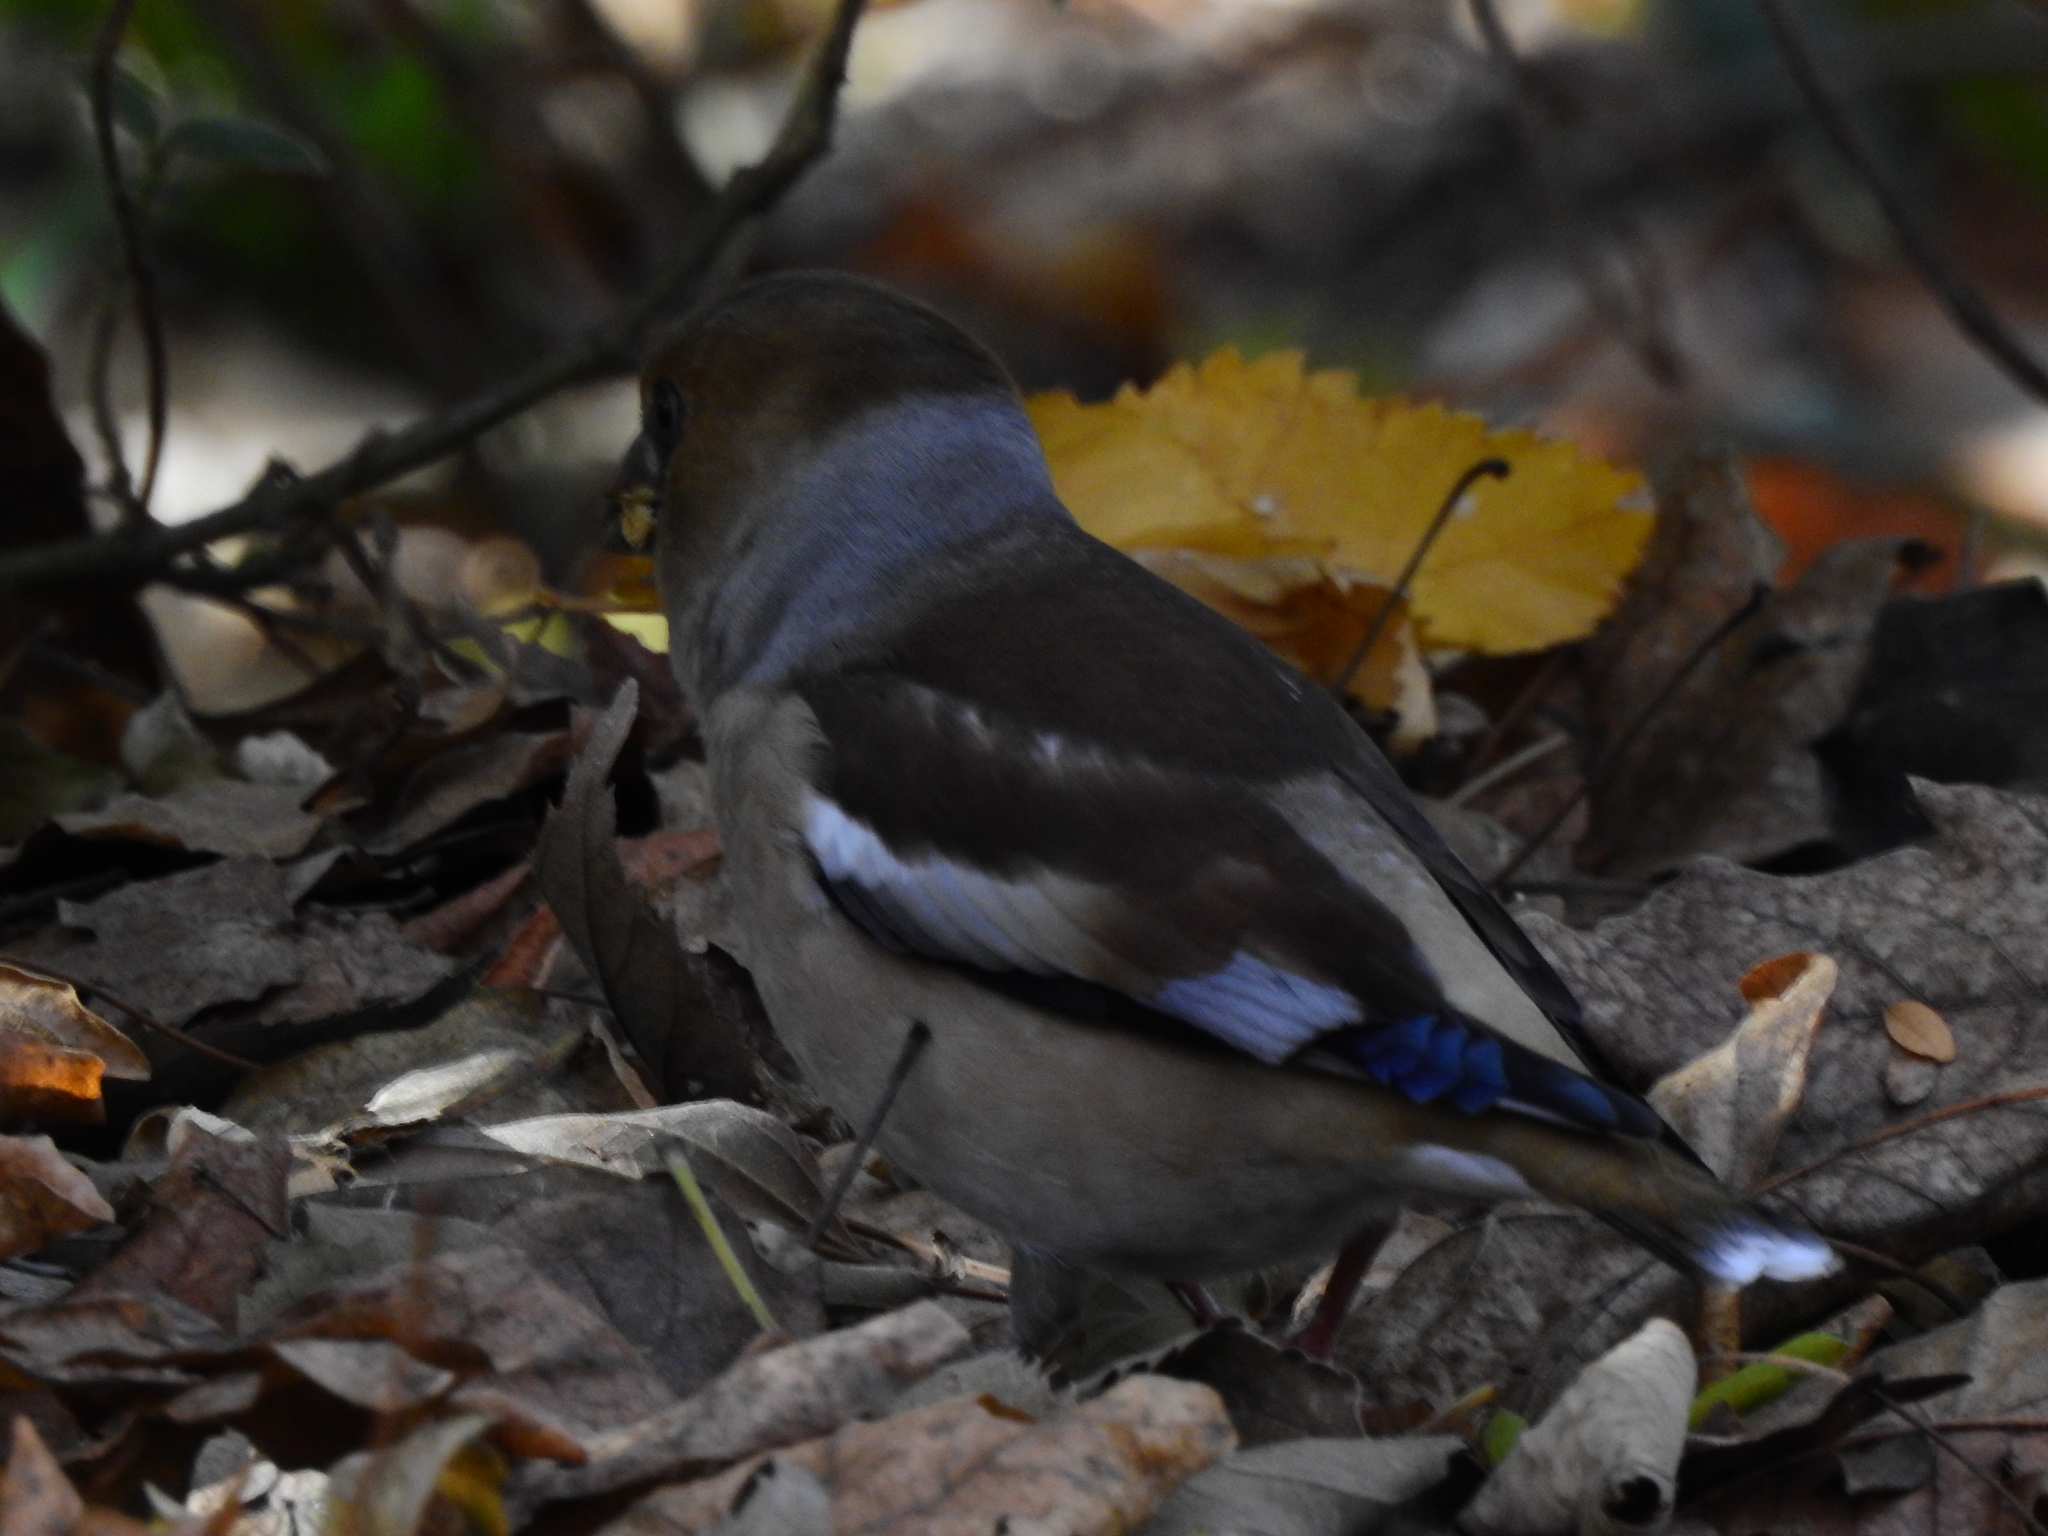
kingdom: Animalia
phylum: Chordata
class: Aves
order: Passeriformes
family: Fringillidae
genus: Coccothraustes
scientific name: Coccothraustes coccothraustes
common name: Hawfinch
